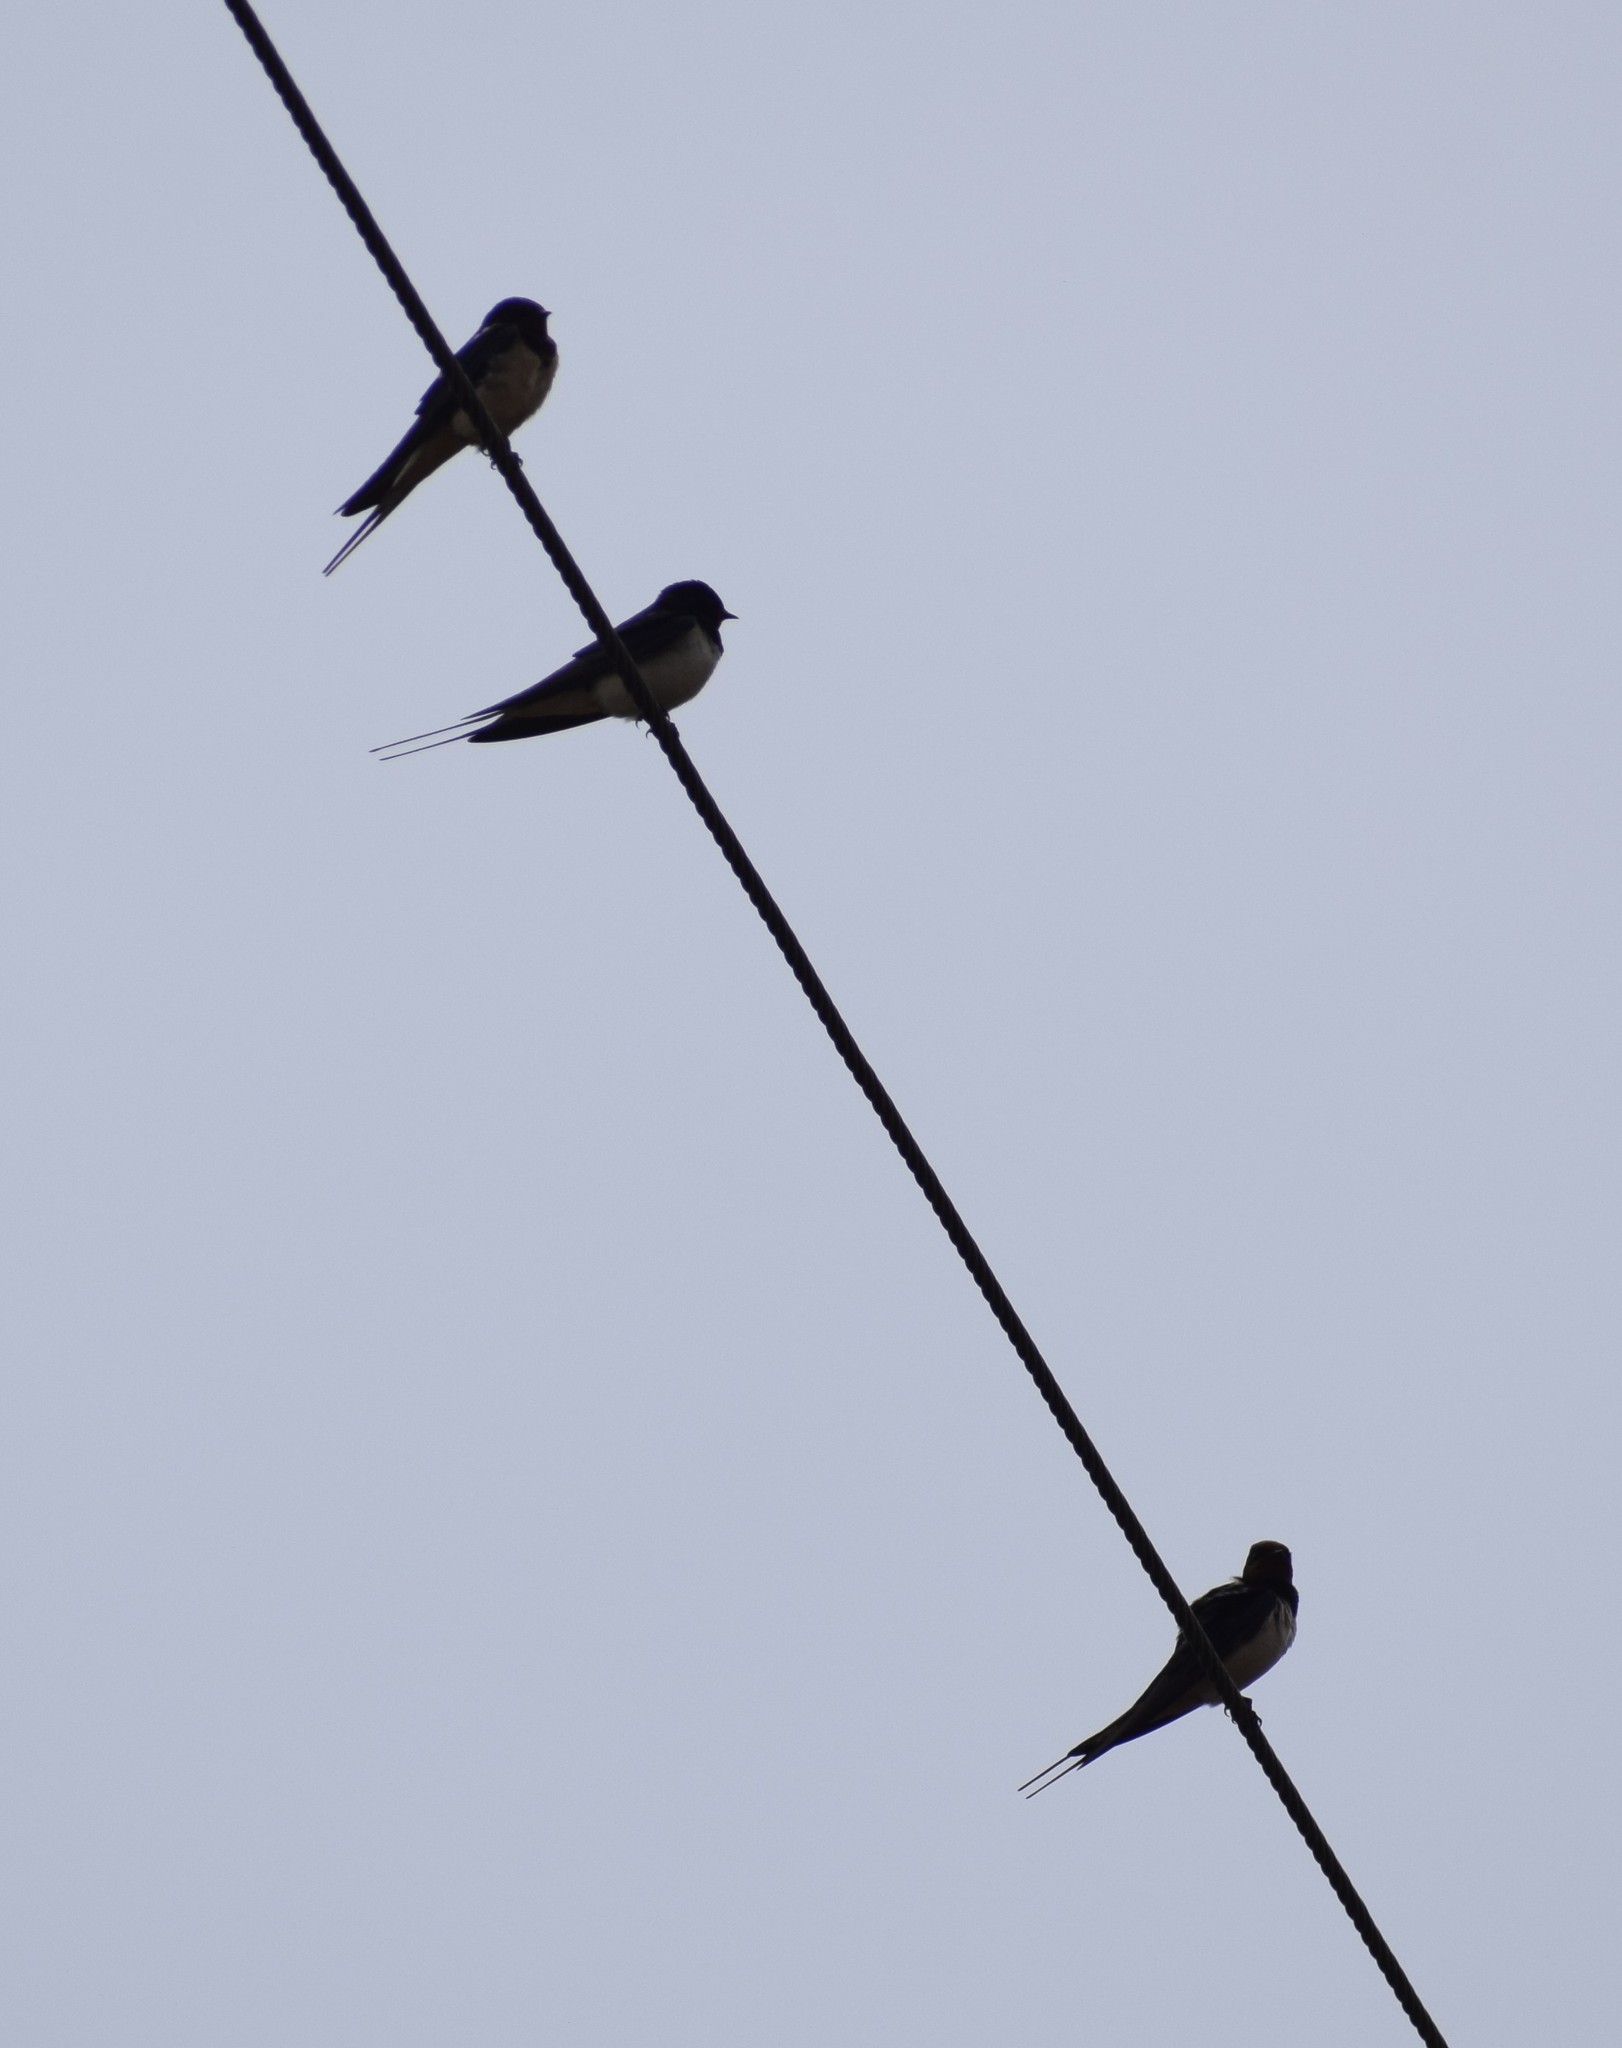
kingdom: Animalia
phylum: Chordata
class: Aves
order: Passeriformes
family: Hirundinidae
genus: Hirundo
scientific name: Hirundo rustica
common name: Barn swallow
